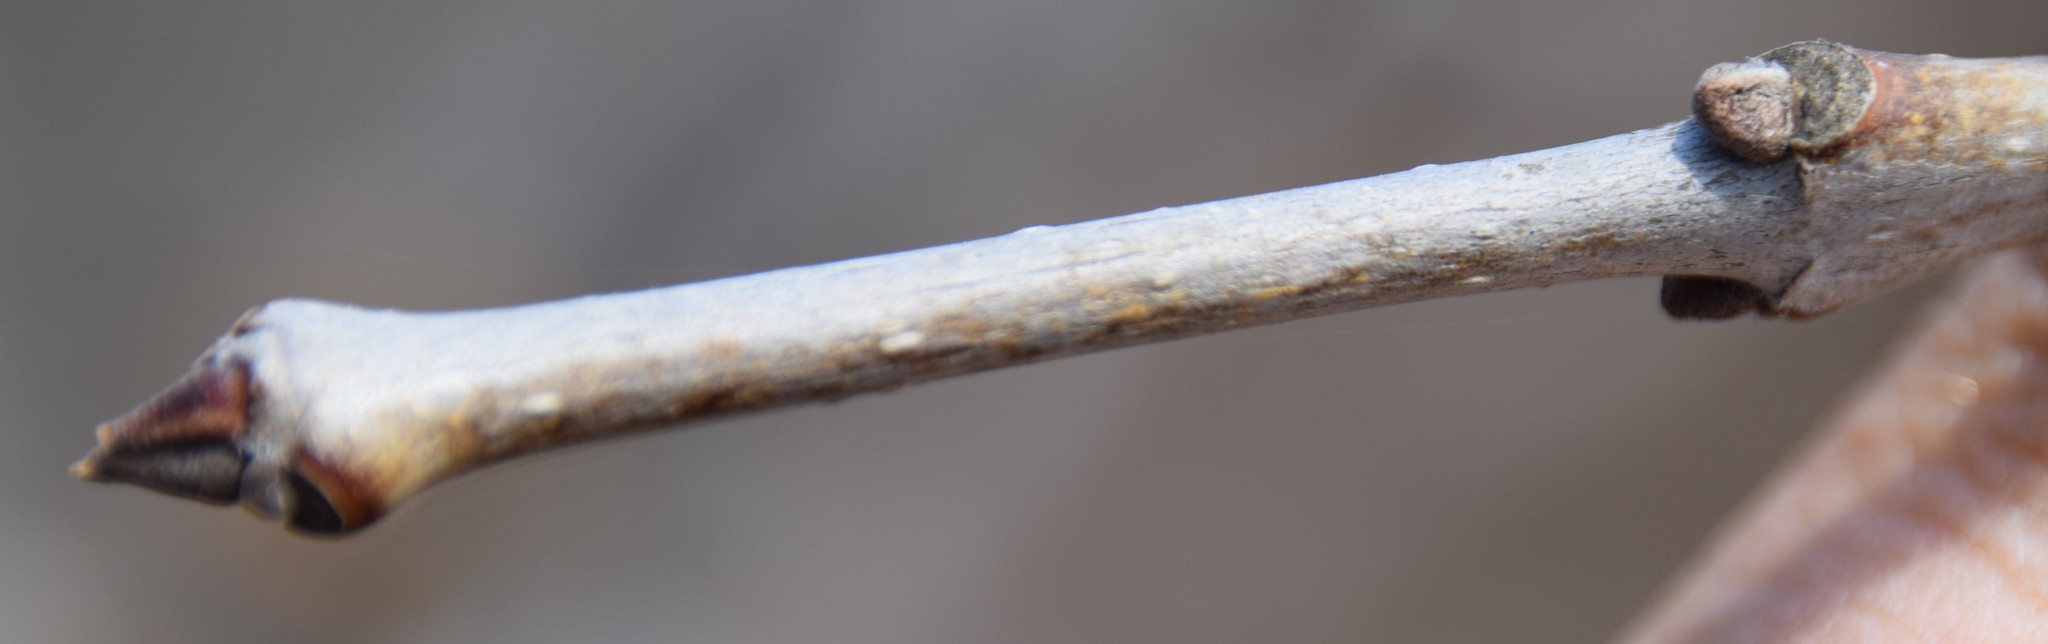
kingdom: Plantae
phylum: Tracheophyta
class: Magnoliopsida
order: Lamiales
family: Oleaceae
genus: Fraxinus
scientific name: Fraxinus pennsylvanica
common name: Green ash
